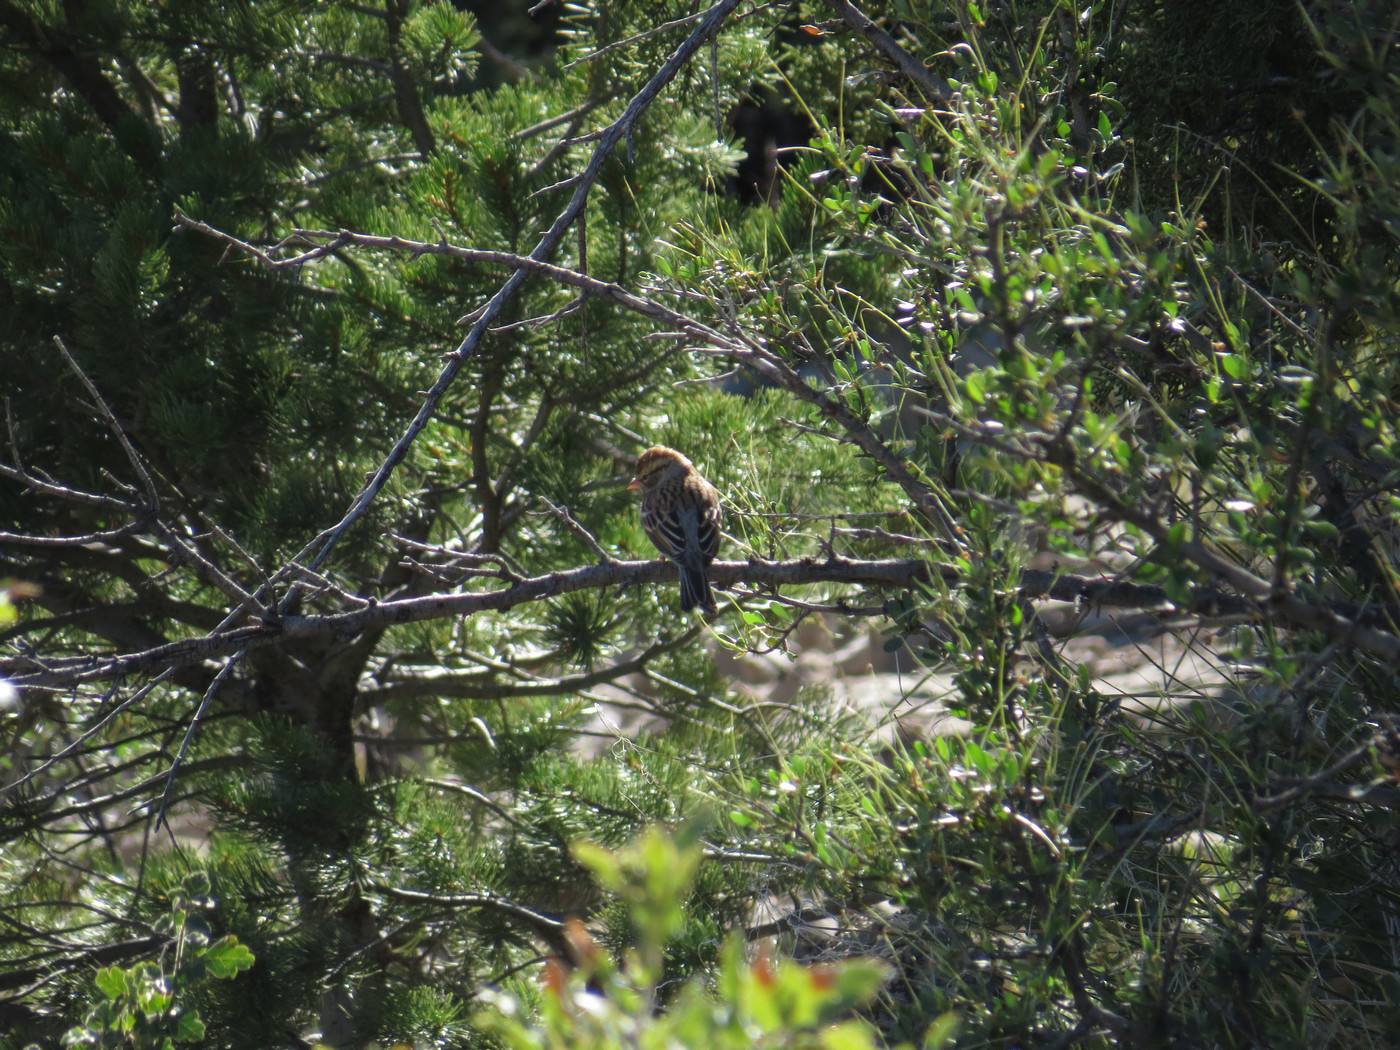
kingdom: Animalia
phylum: Chordata
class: Aves
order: Passeriformes
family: Passerellidae
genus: Spizella
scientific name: Spizella passerina
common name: Chipping sparrow
